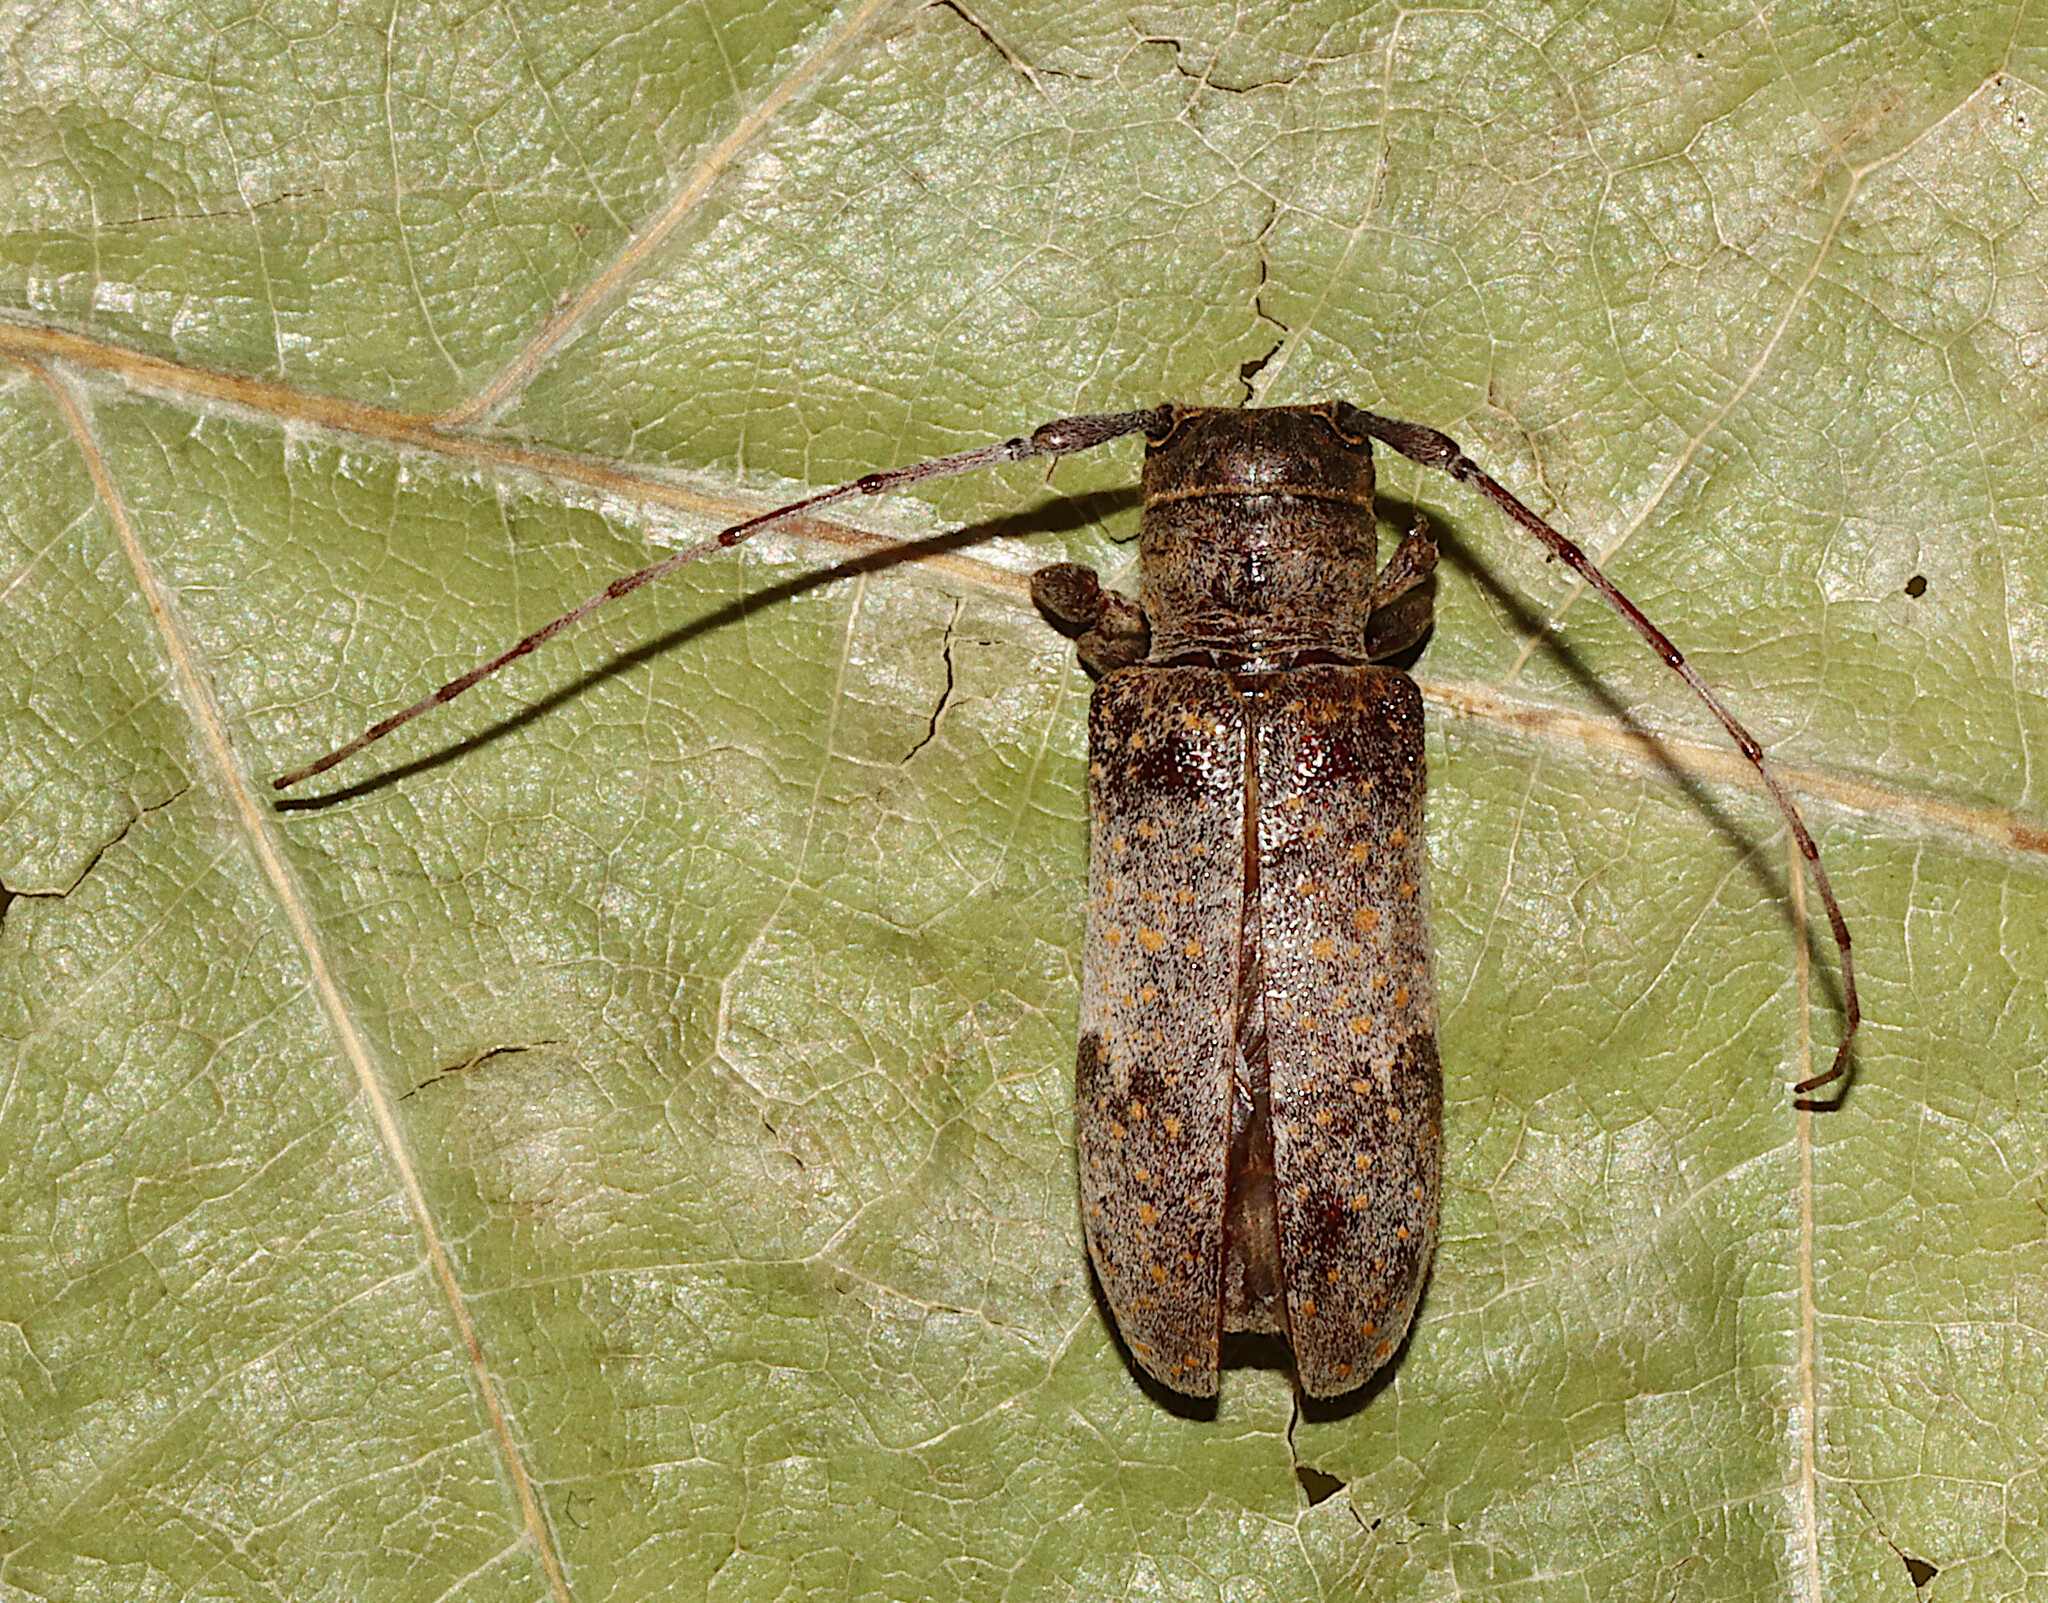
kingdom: Animalia
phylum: Arthropoda
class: Insecta
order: Coleoptera
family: Cerambycidae
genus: Oncideres
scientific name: Oncideres cingulata
